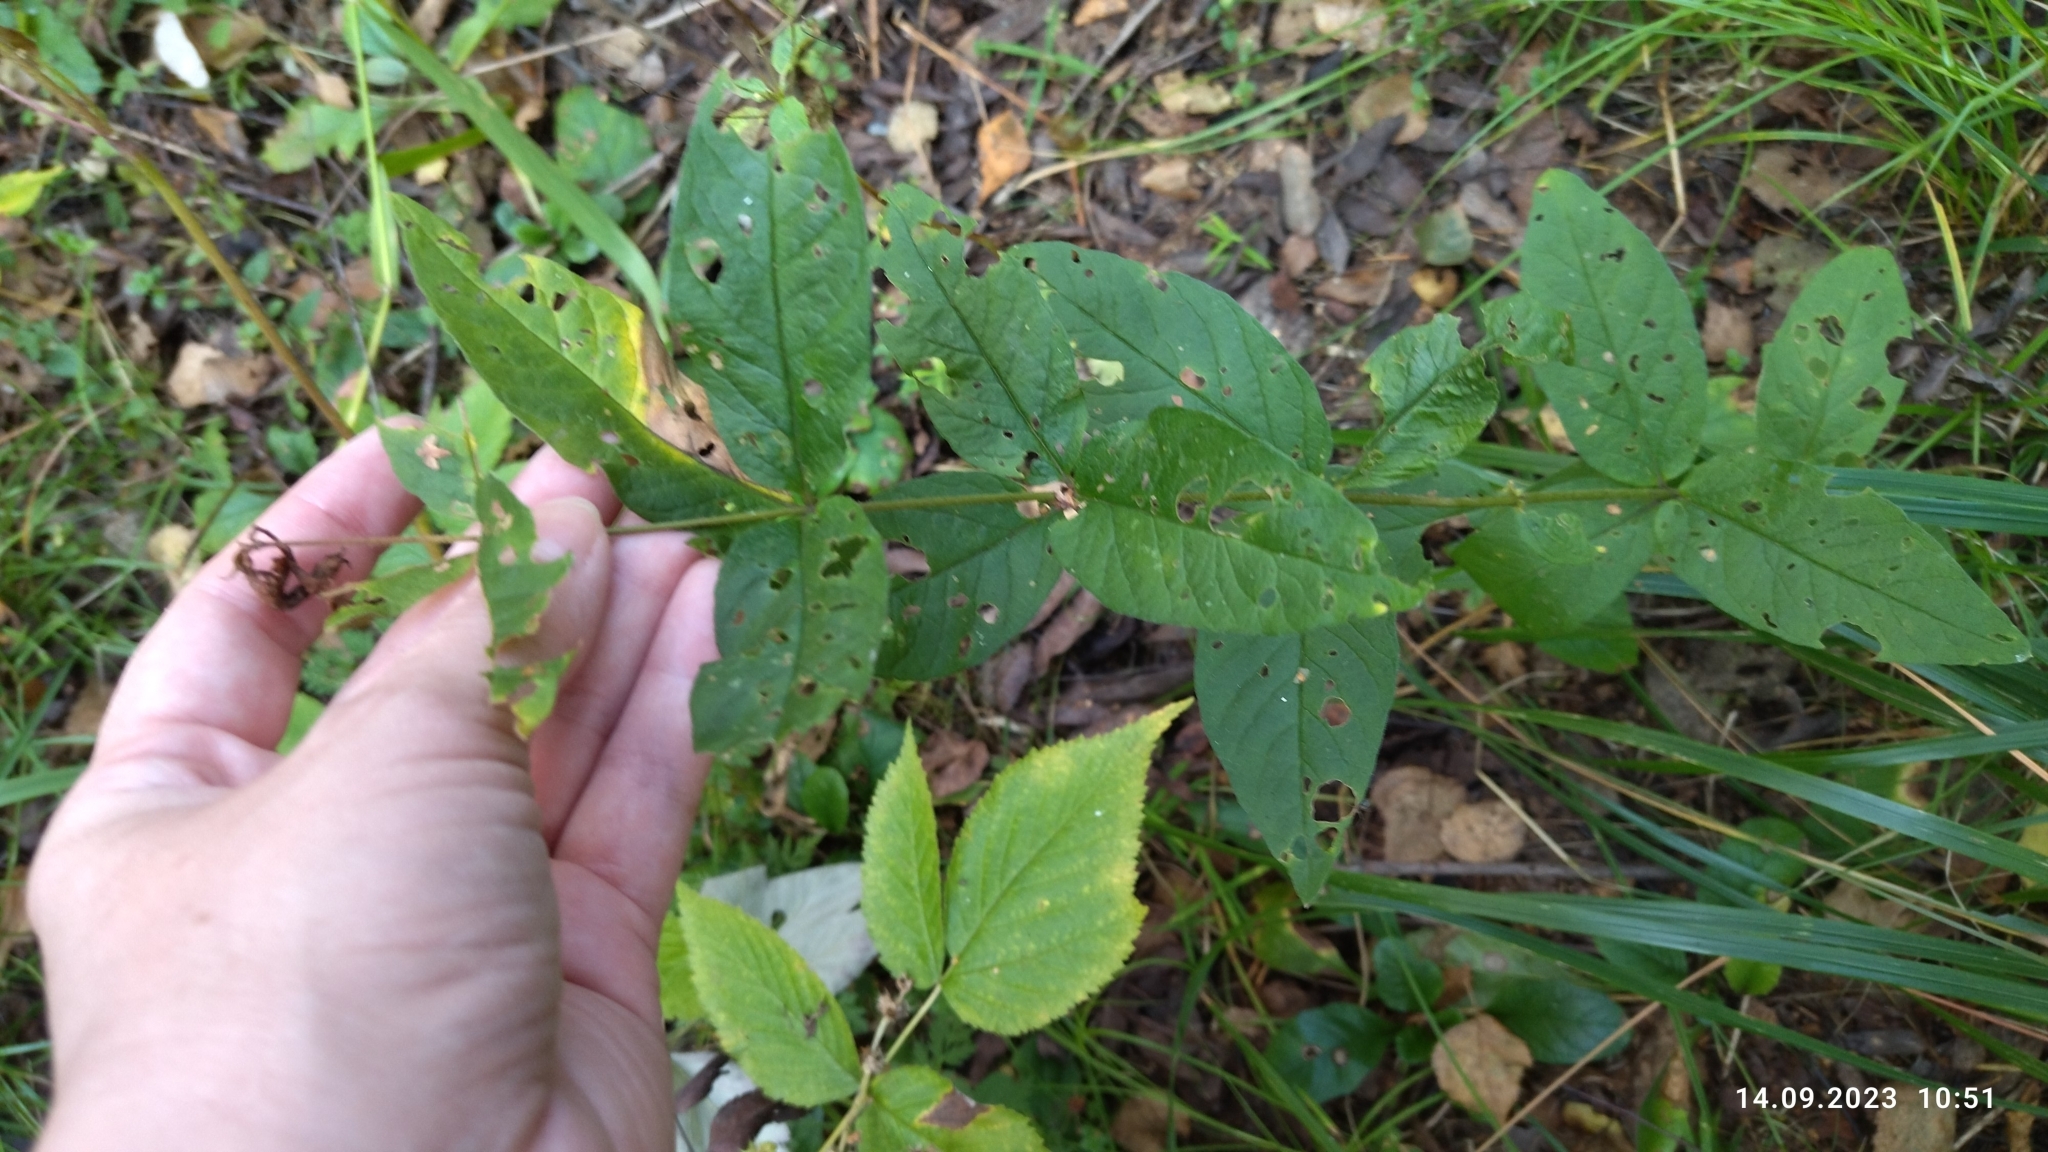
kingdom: Plantae
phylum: Tracheophyta
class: Magnoliopsida
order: Ericales
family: Primulaceae
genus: Lysimachia
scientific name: Lysimachia vulgaris
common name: Yellow loosestrife
